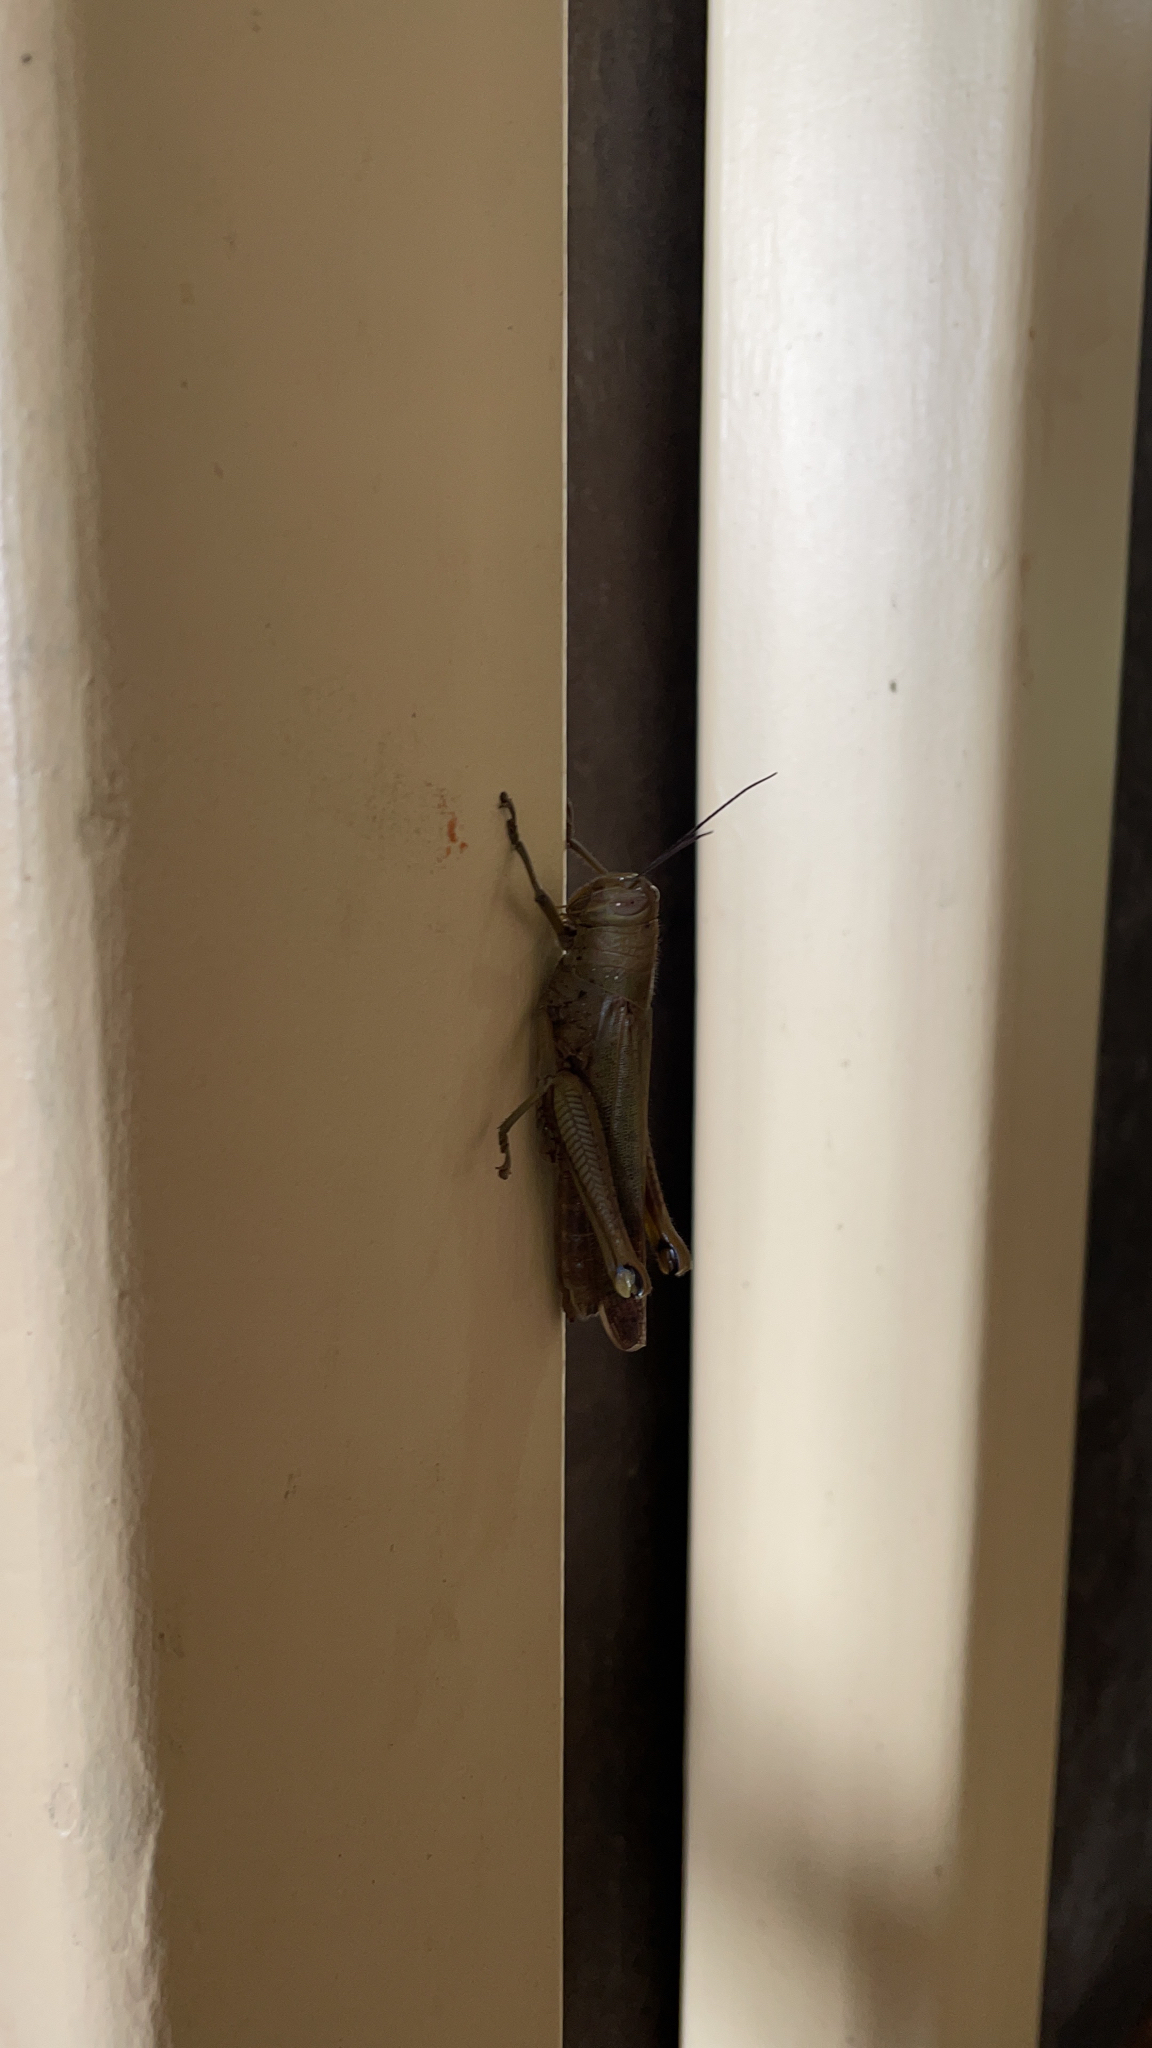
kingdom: Animalia
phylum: Arthropoda
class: Insecta
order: Orthoptera
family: Acrididae
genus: Valanga
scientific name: Valanga irregularis
